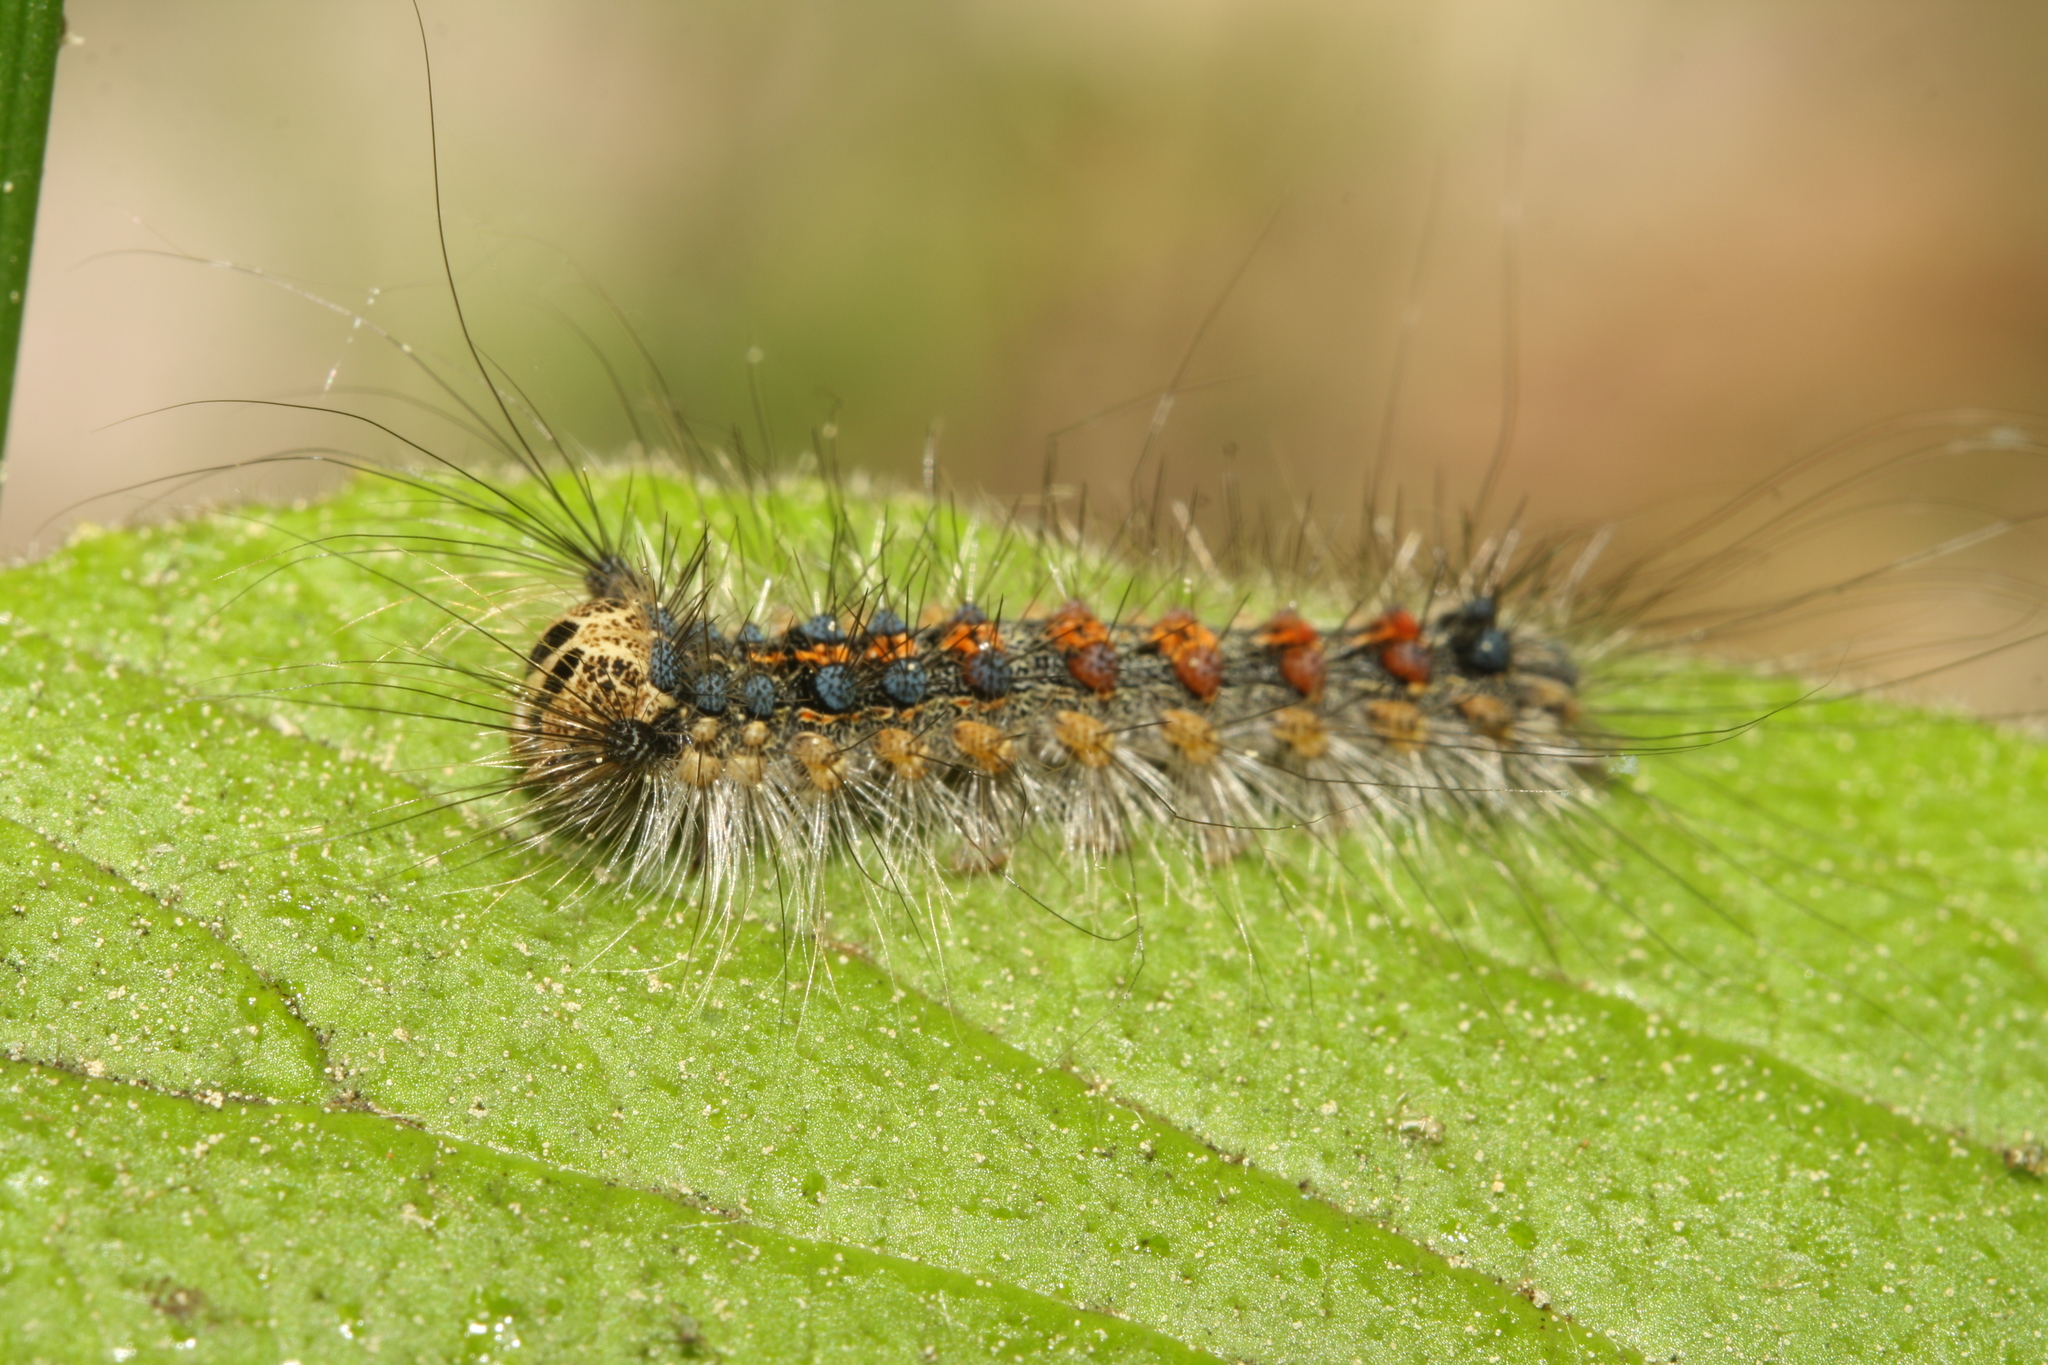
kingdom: Animalia
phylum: Arthropoda
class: Insecta
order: Lepidoptera
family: Erebidae
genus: Lymantria
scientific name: Lymantria dispar
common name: Gypsy moth
